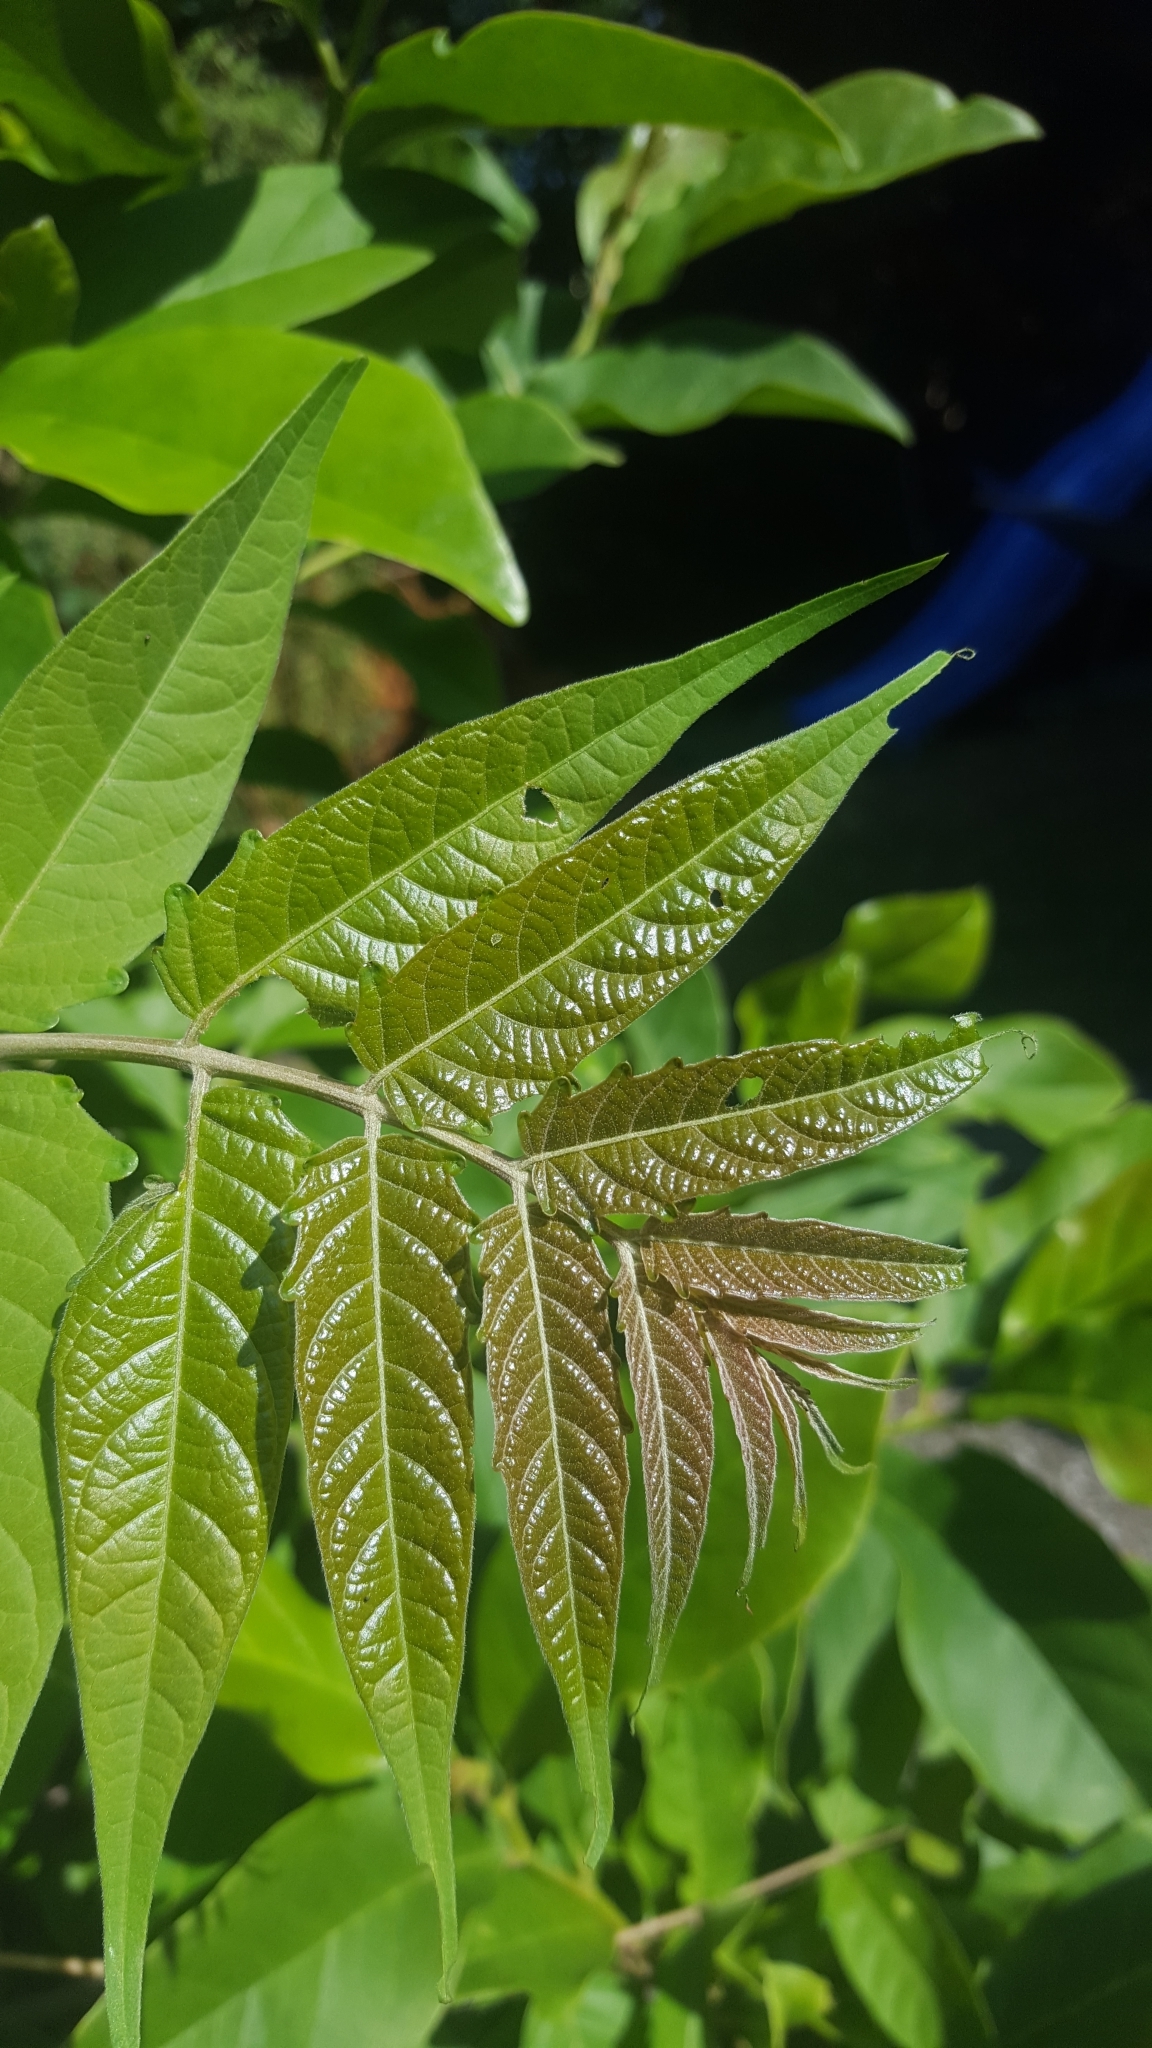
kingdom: Plantae
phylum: Tracheophyta
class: Magnoliopsida
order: Sapindales
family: Simaroubaceae
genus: Ailanthus
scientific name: Ailanthus altissima
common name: Tree-of-heaven
